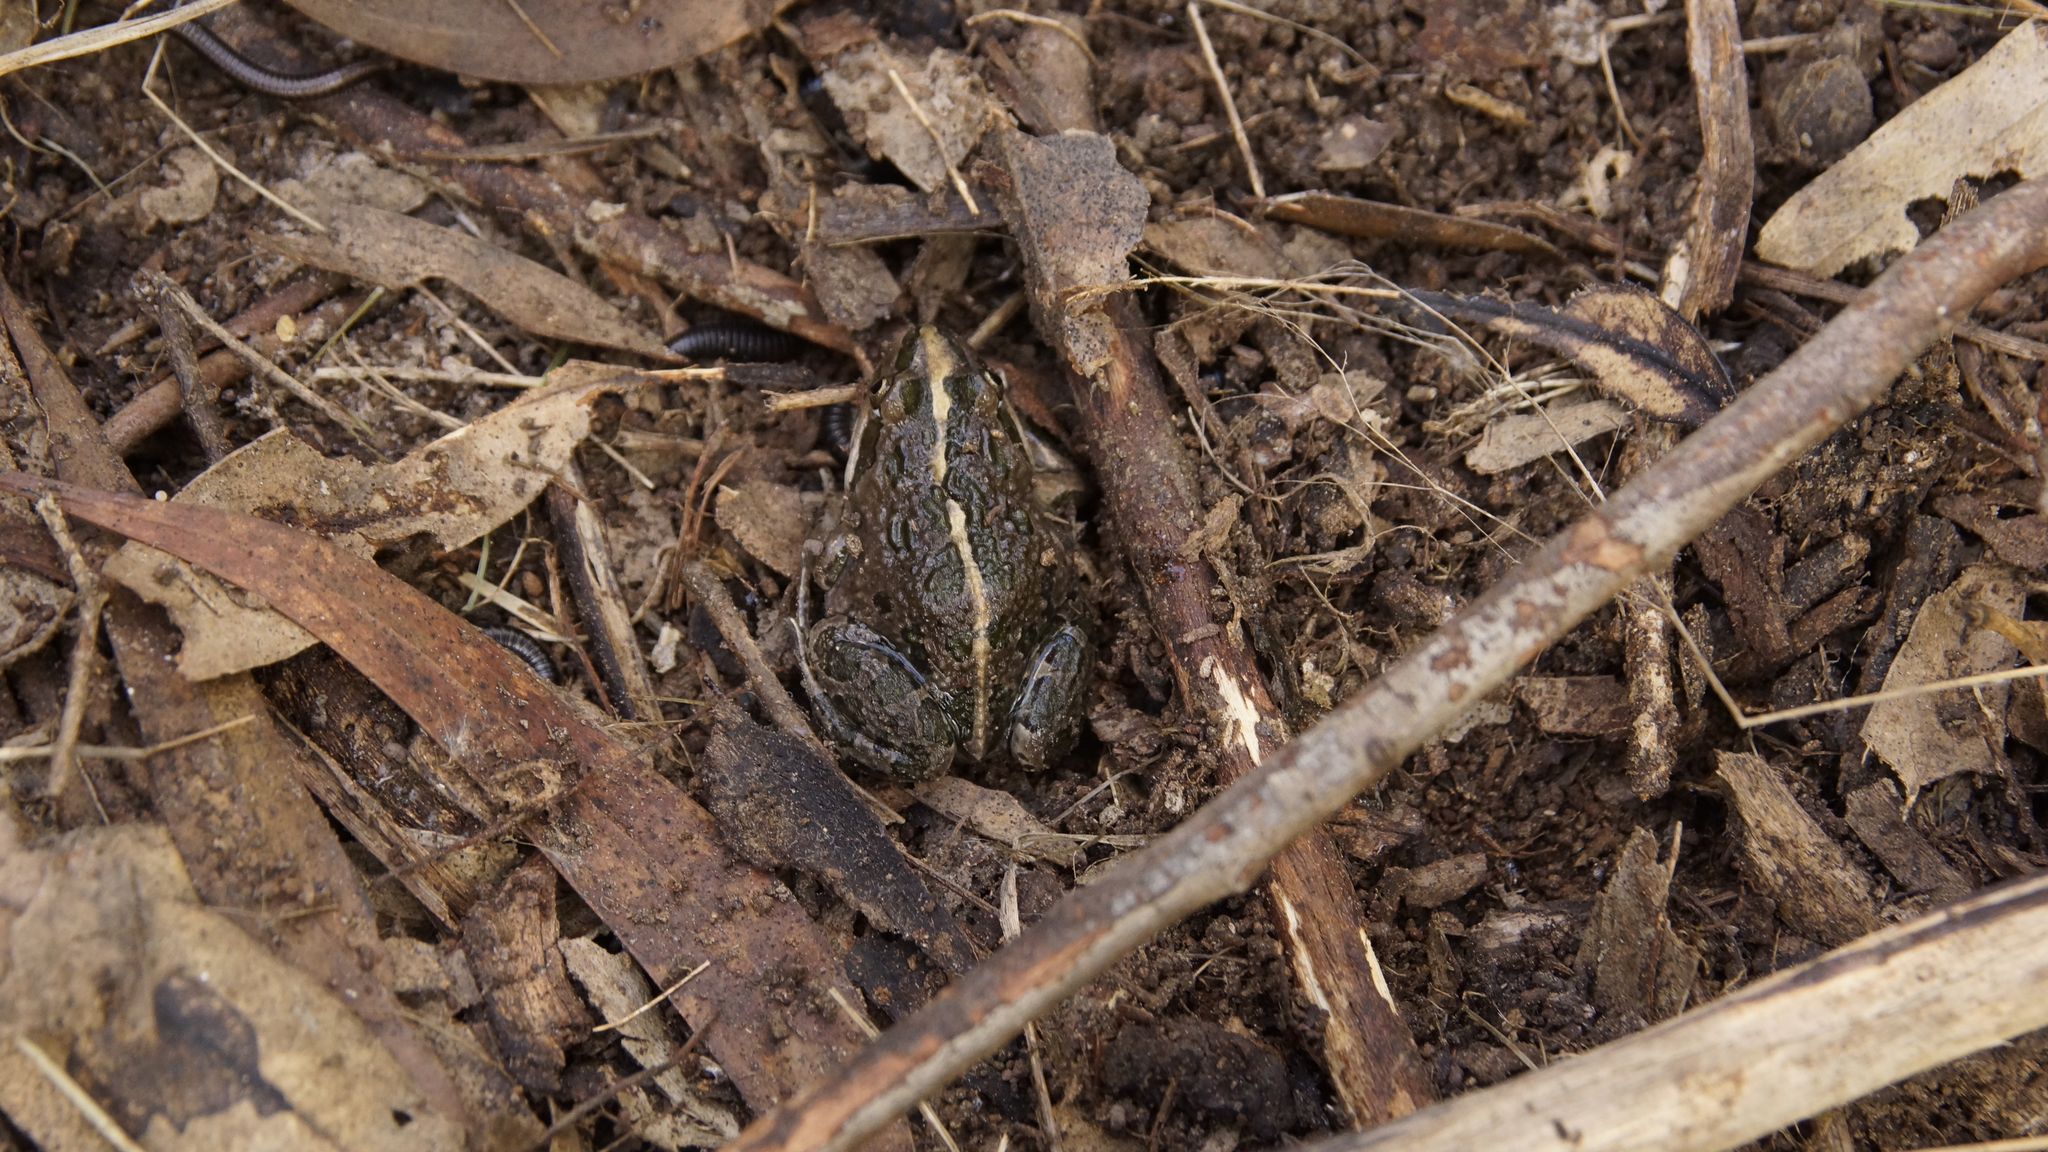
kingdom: Animalia
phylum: Chordata
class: Amphibia
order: Anura
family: Limnodynastidae
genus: Limnodynastes
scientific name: Limnodynastes tasmaniensis
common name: Spotted marsh frog
